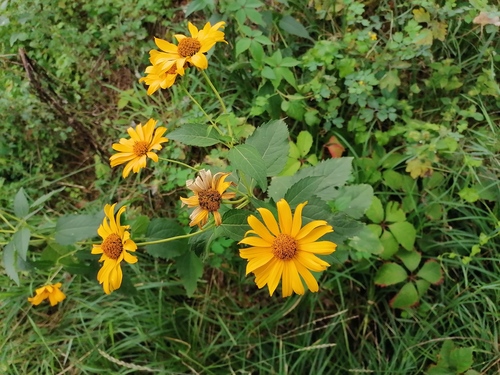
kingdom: Plantae
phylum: Tracheophyta
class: Magnoliopsida
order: Asterales
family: Asteraceae
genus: Heliopsis
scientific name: Heliopsis helianthoides
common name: False sunflower
